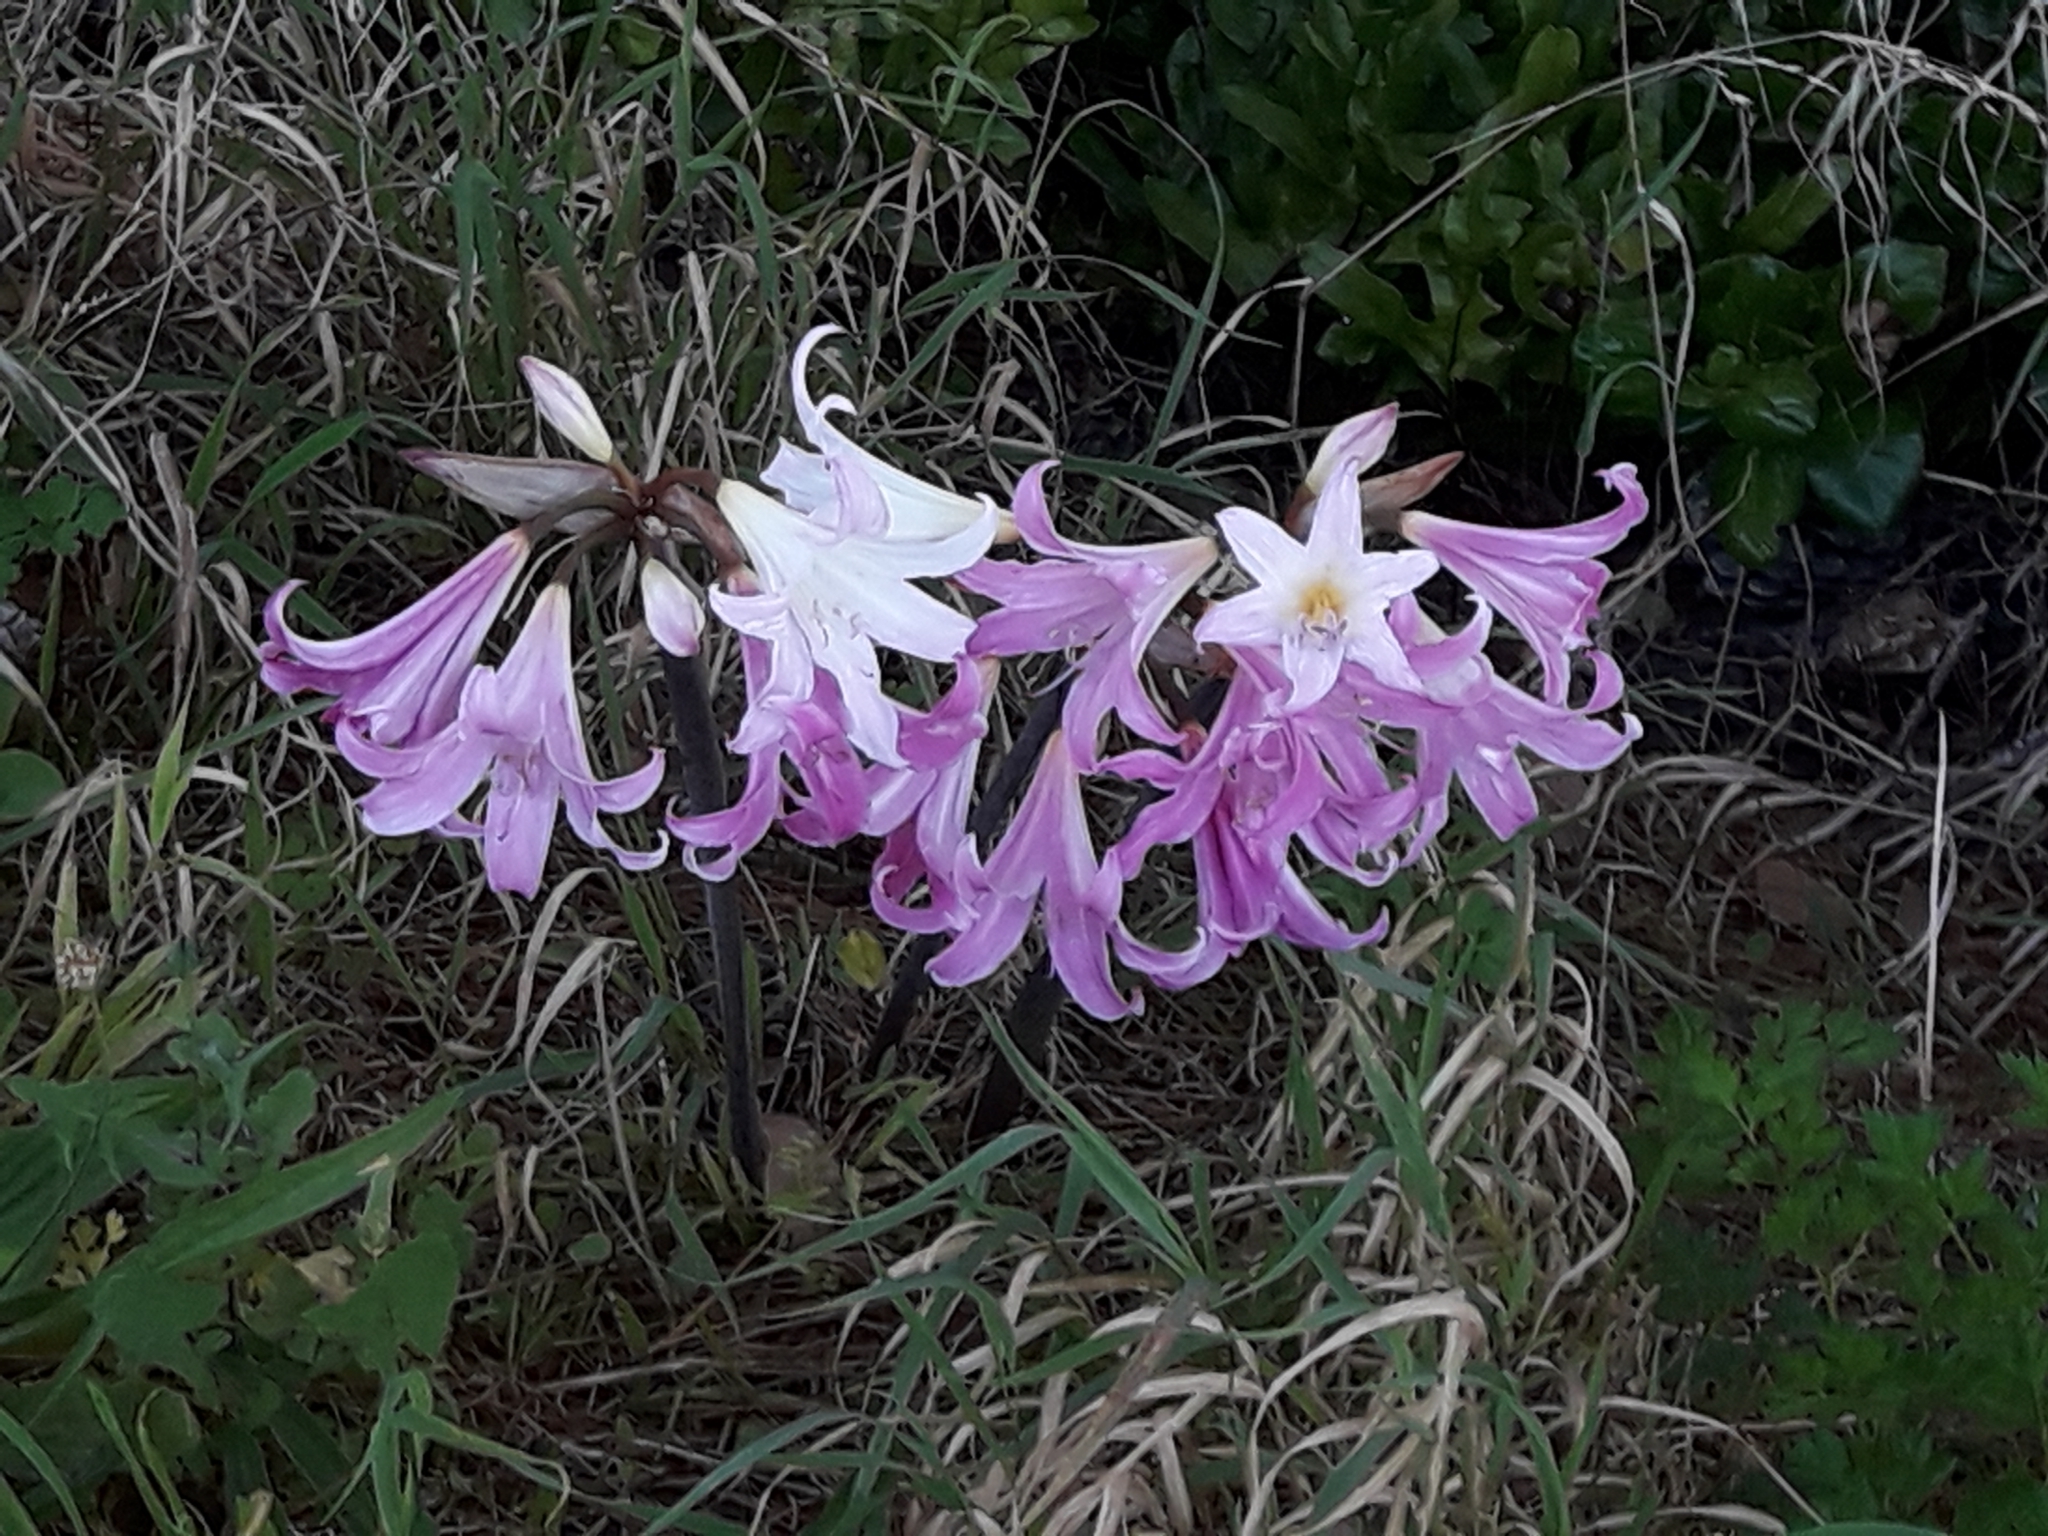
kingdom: Plantae
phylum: Tracheophyta
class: Liliopsida
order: Asparagales
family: Amaryllidaceae
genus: Amaryllis
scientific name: Amaryllis belladonna
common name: Jersey lily
